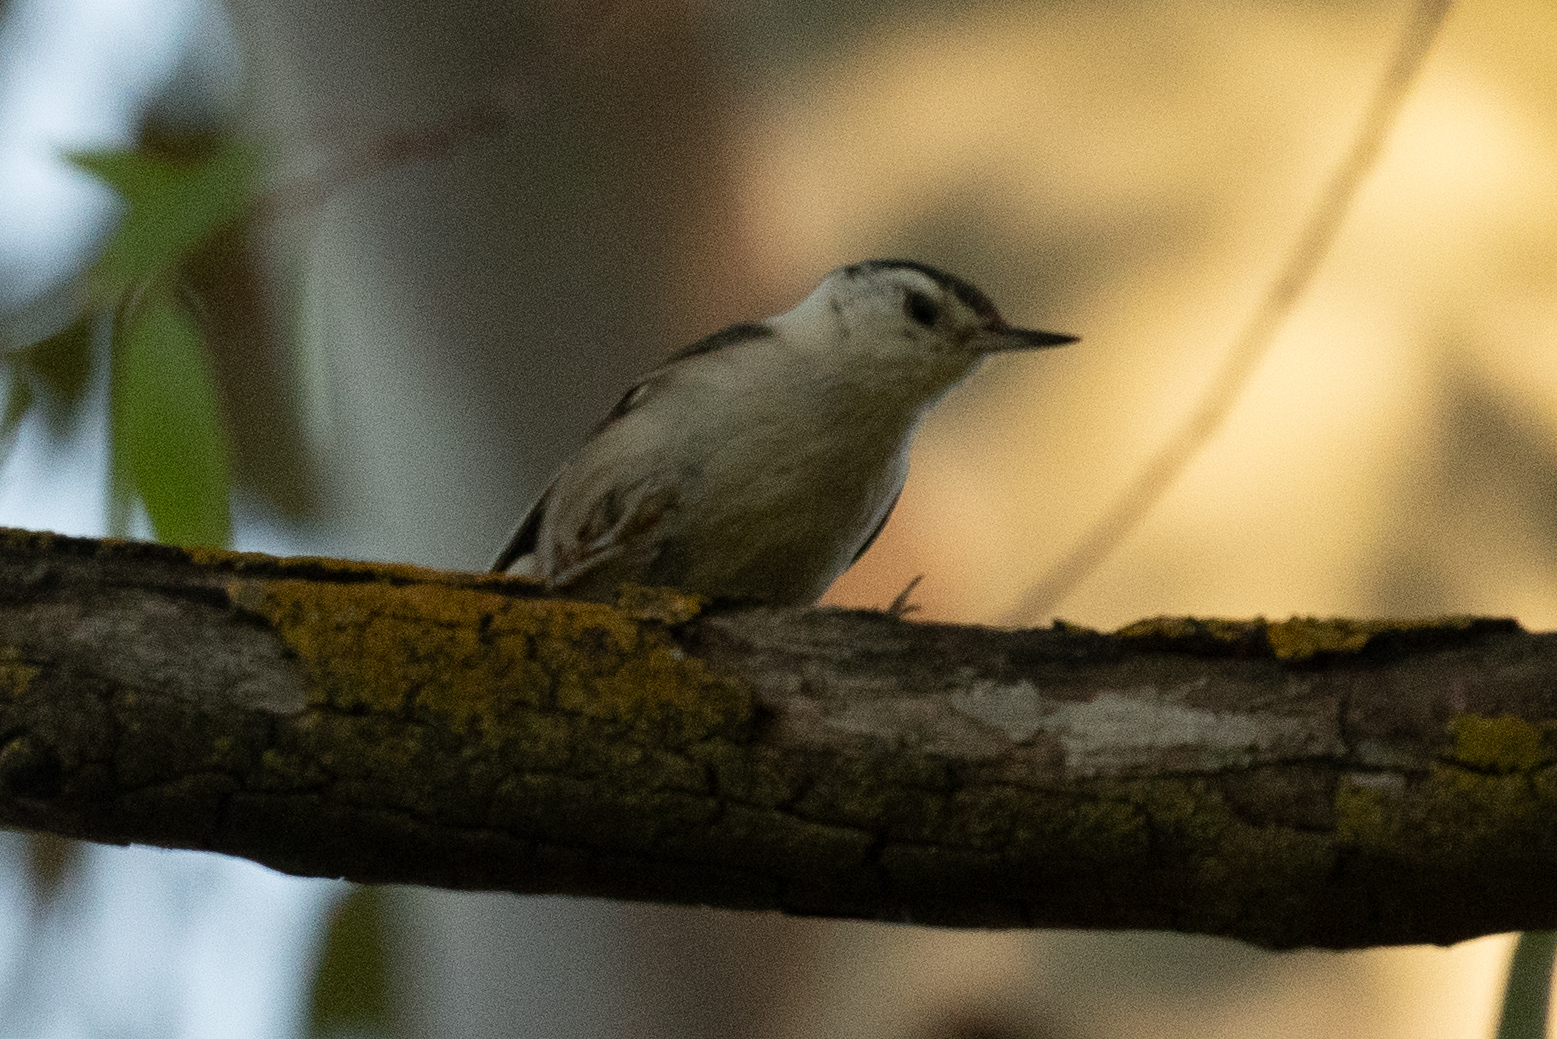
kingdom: Animalia
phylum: Chordata
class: Aves
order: Passeriformes
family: Sittidae
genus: Sitta
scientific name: Sitta carolinensis
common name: White-breasted nuthatch
